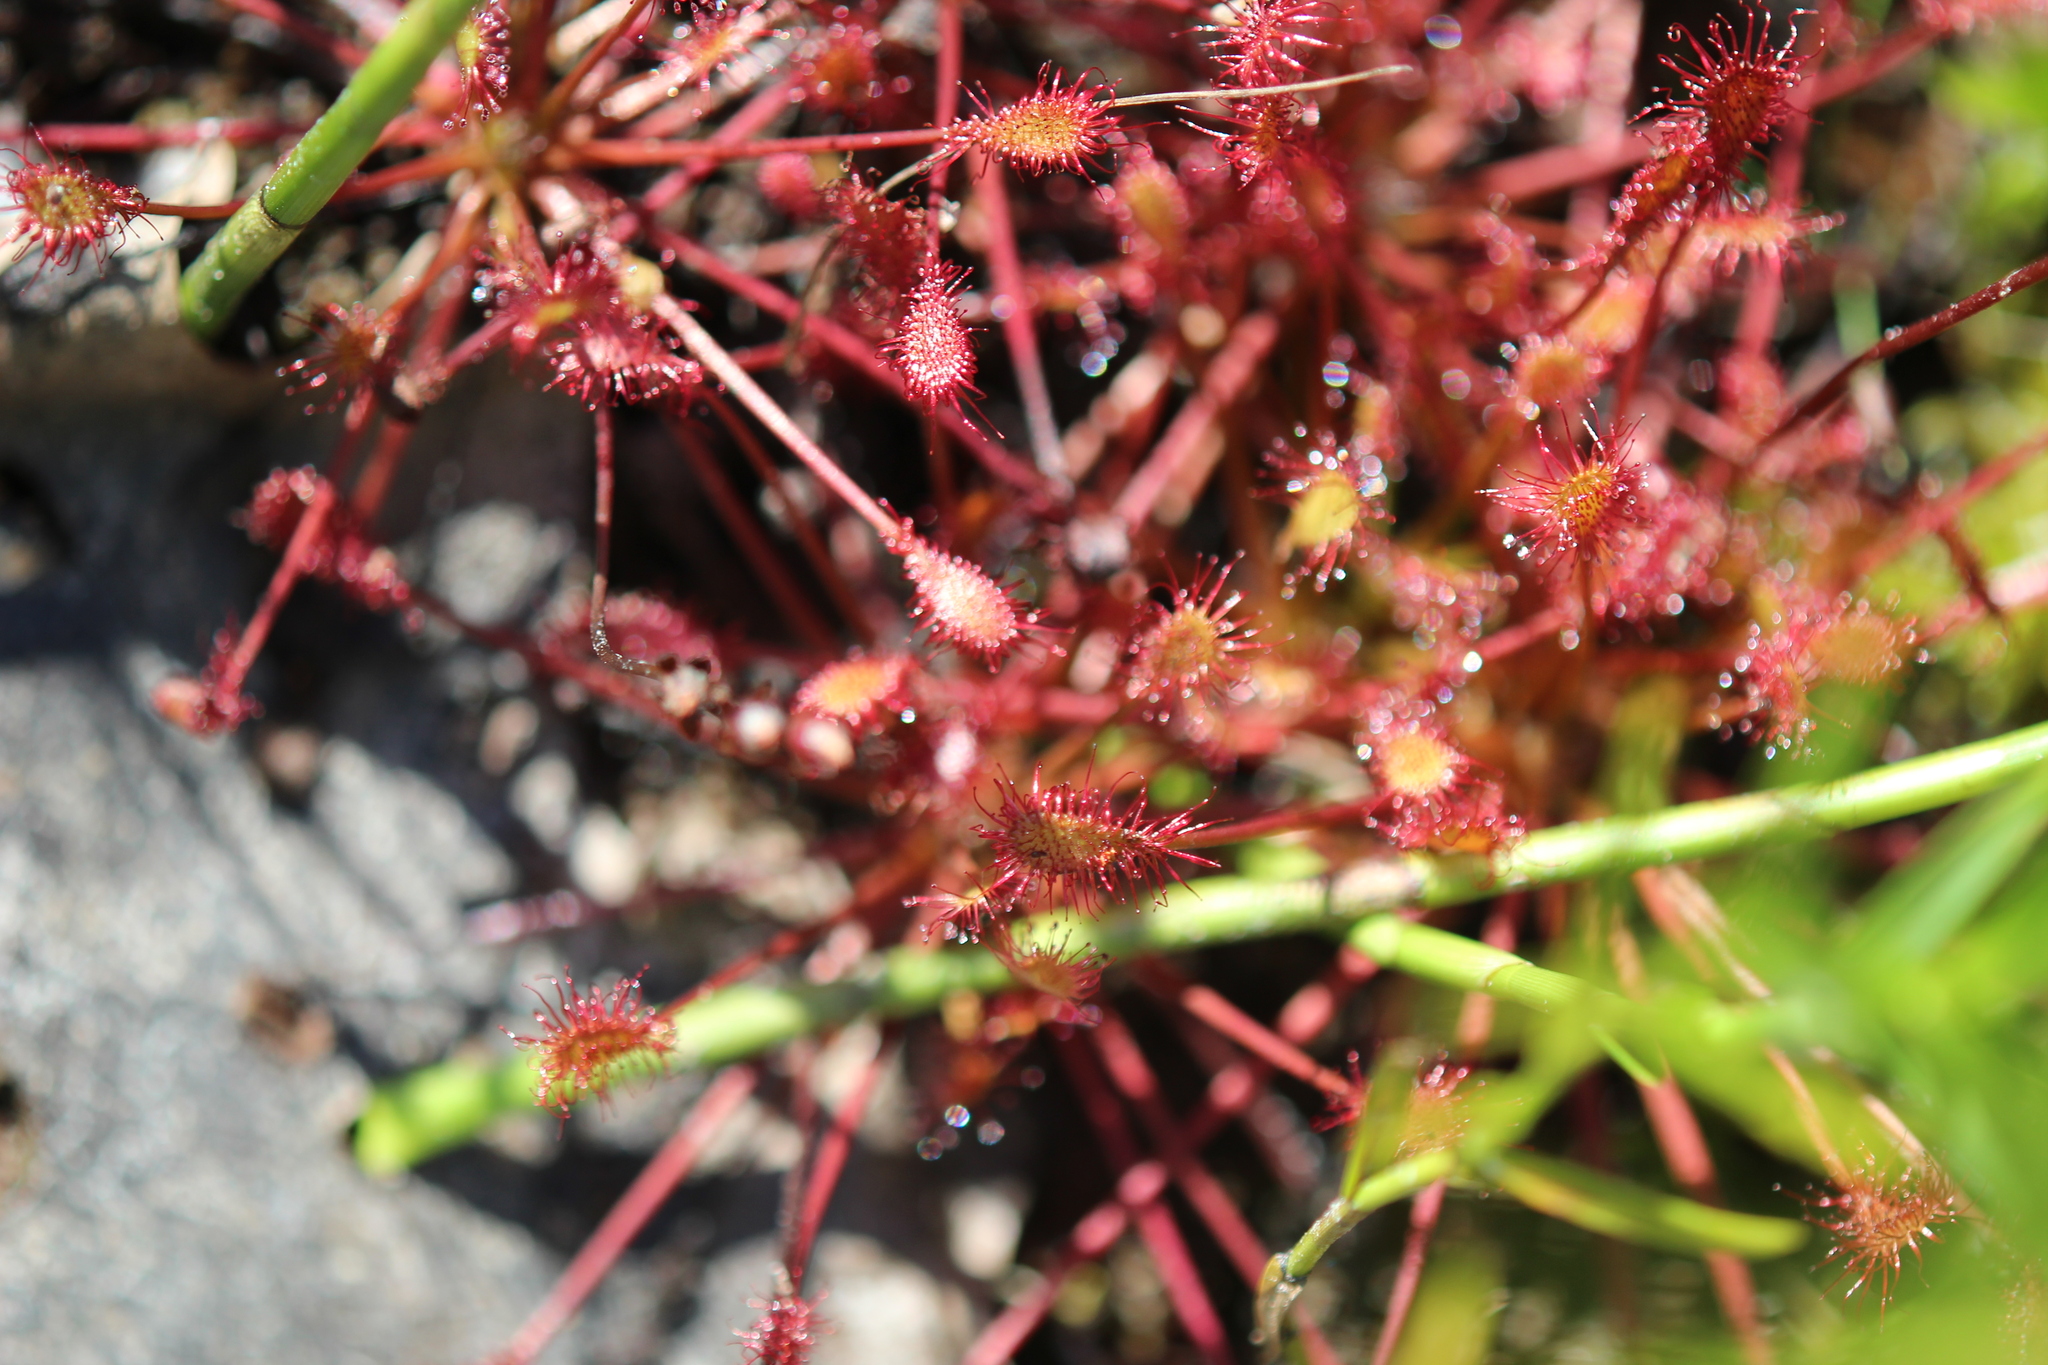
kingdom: Plantae
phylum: Tracheophyta
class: Magnoliopsida
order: Caryophyllales
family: Droseraceae
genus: Drosera
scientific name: Drosera intermedia
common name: Oblong-leaved sundew
